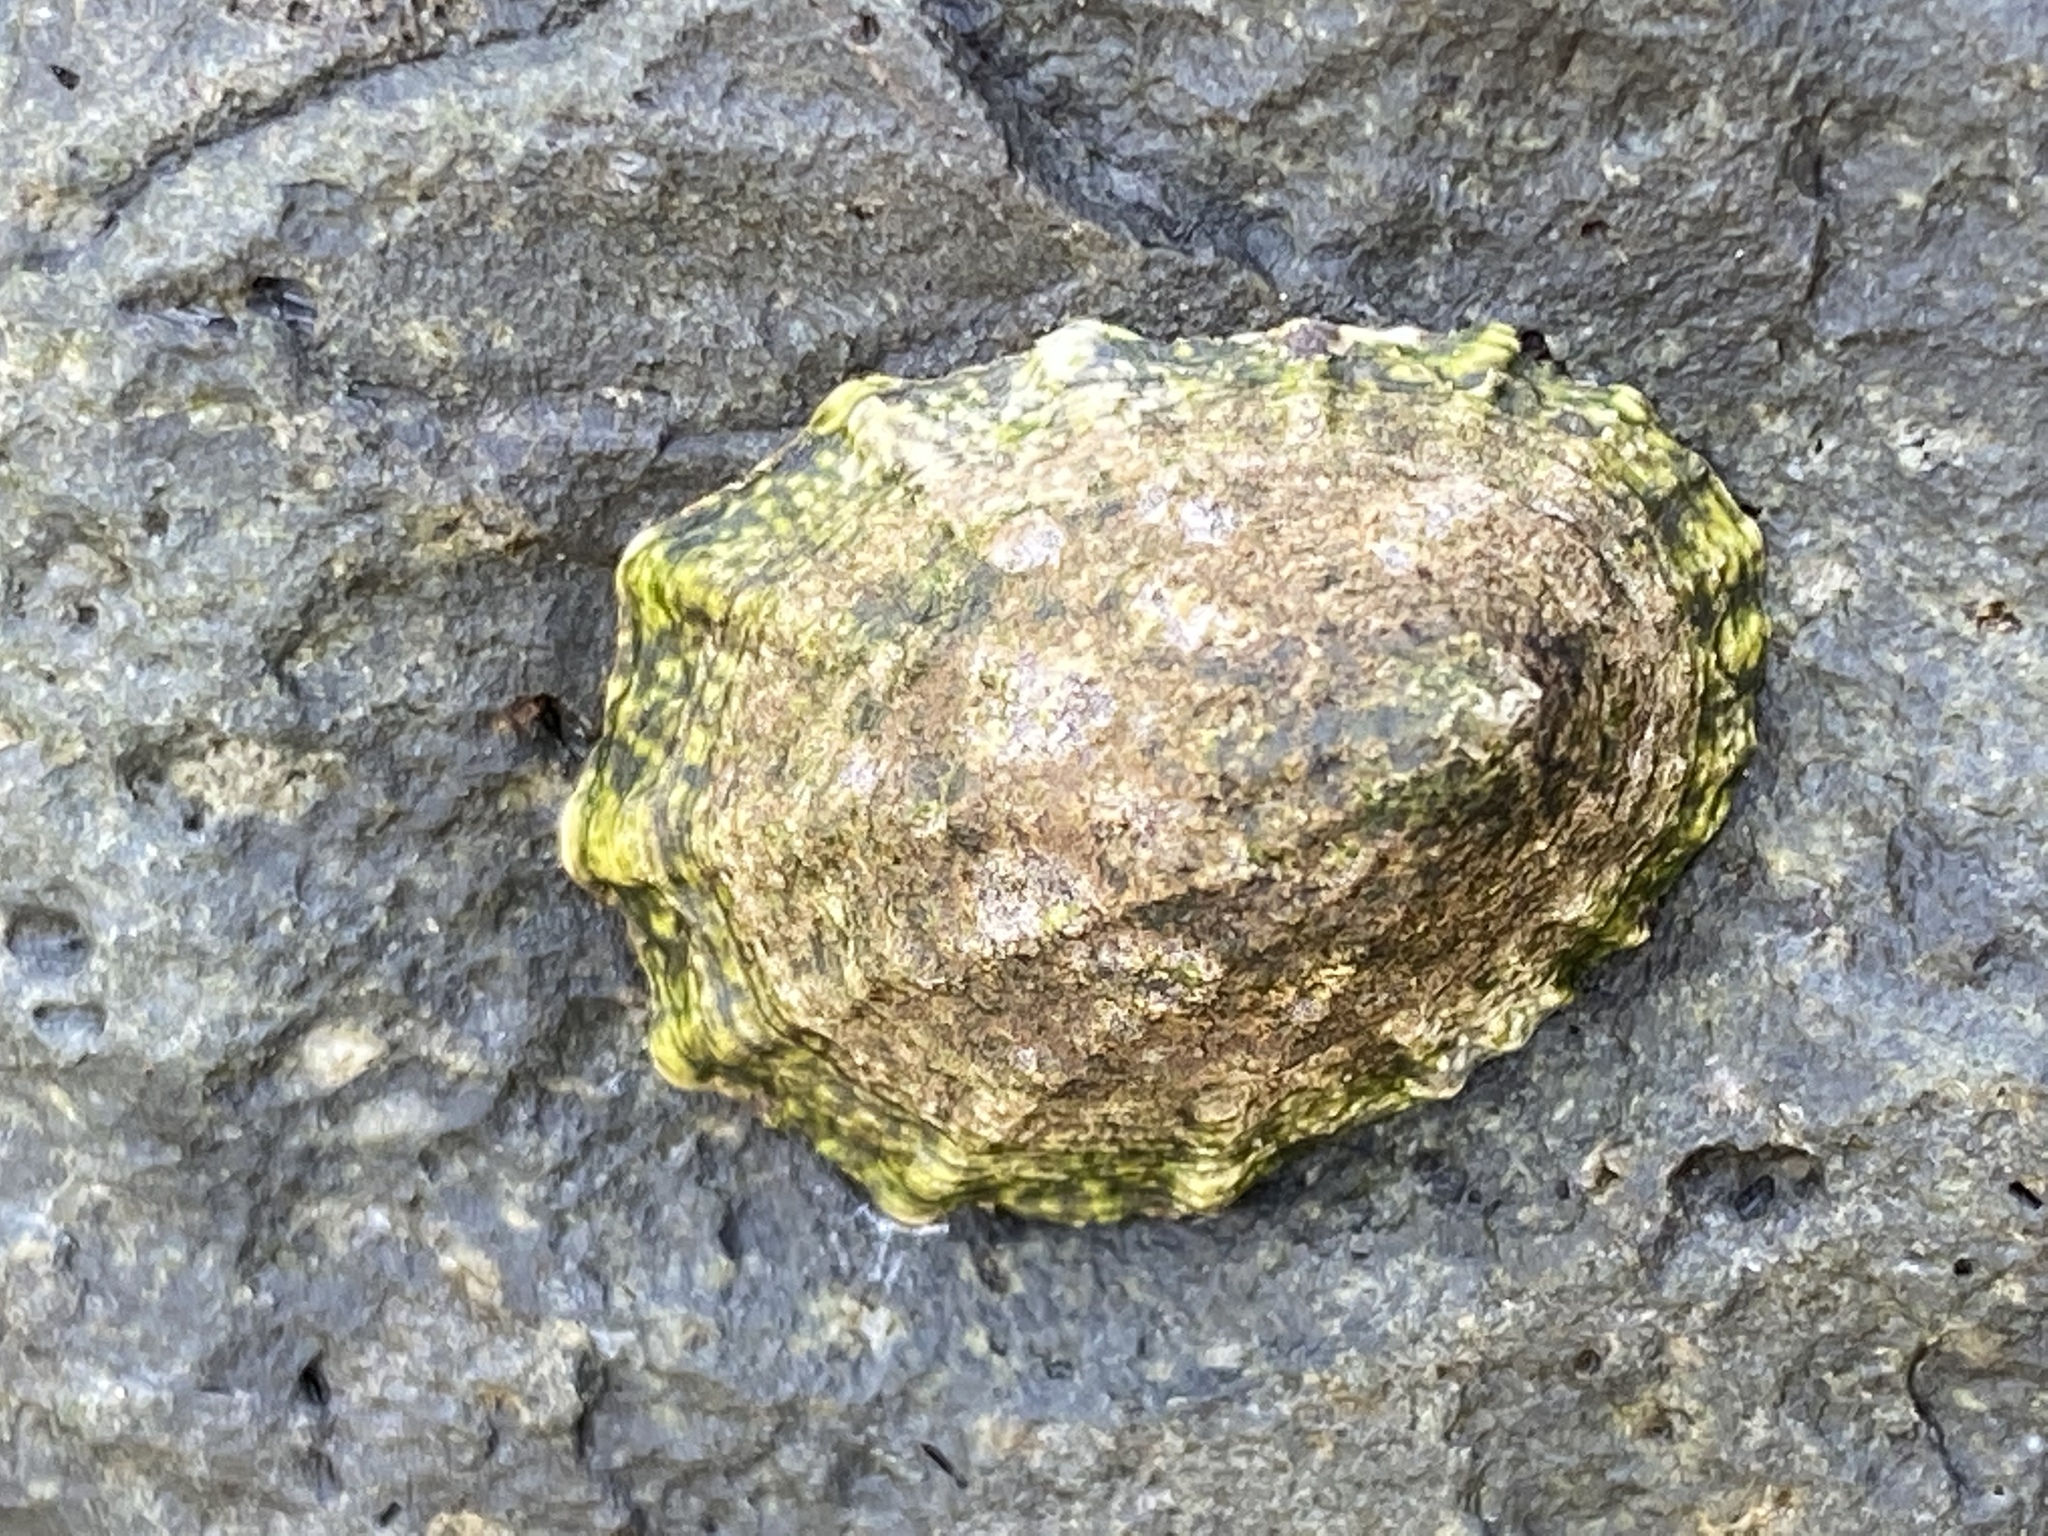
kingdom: Animalia
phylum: Mollusca
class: Gastropoda
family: Lottiidae
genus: Lottia
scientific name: Lottia scabra
